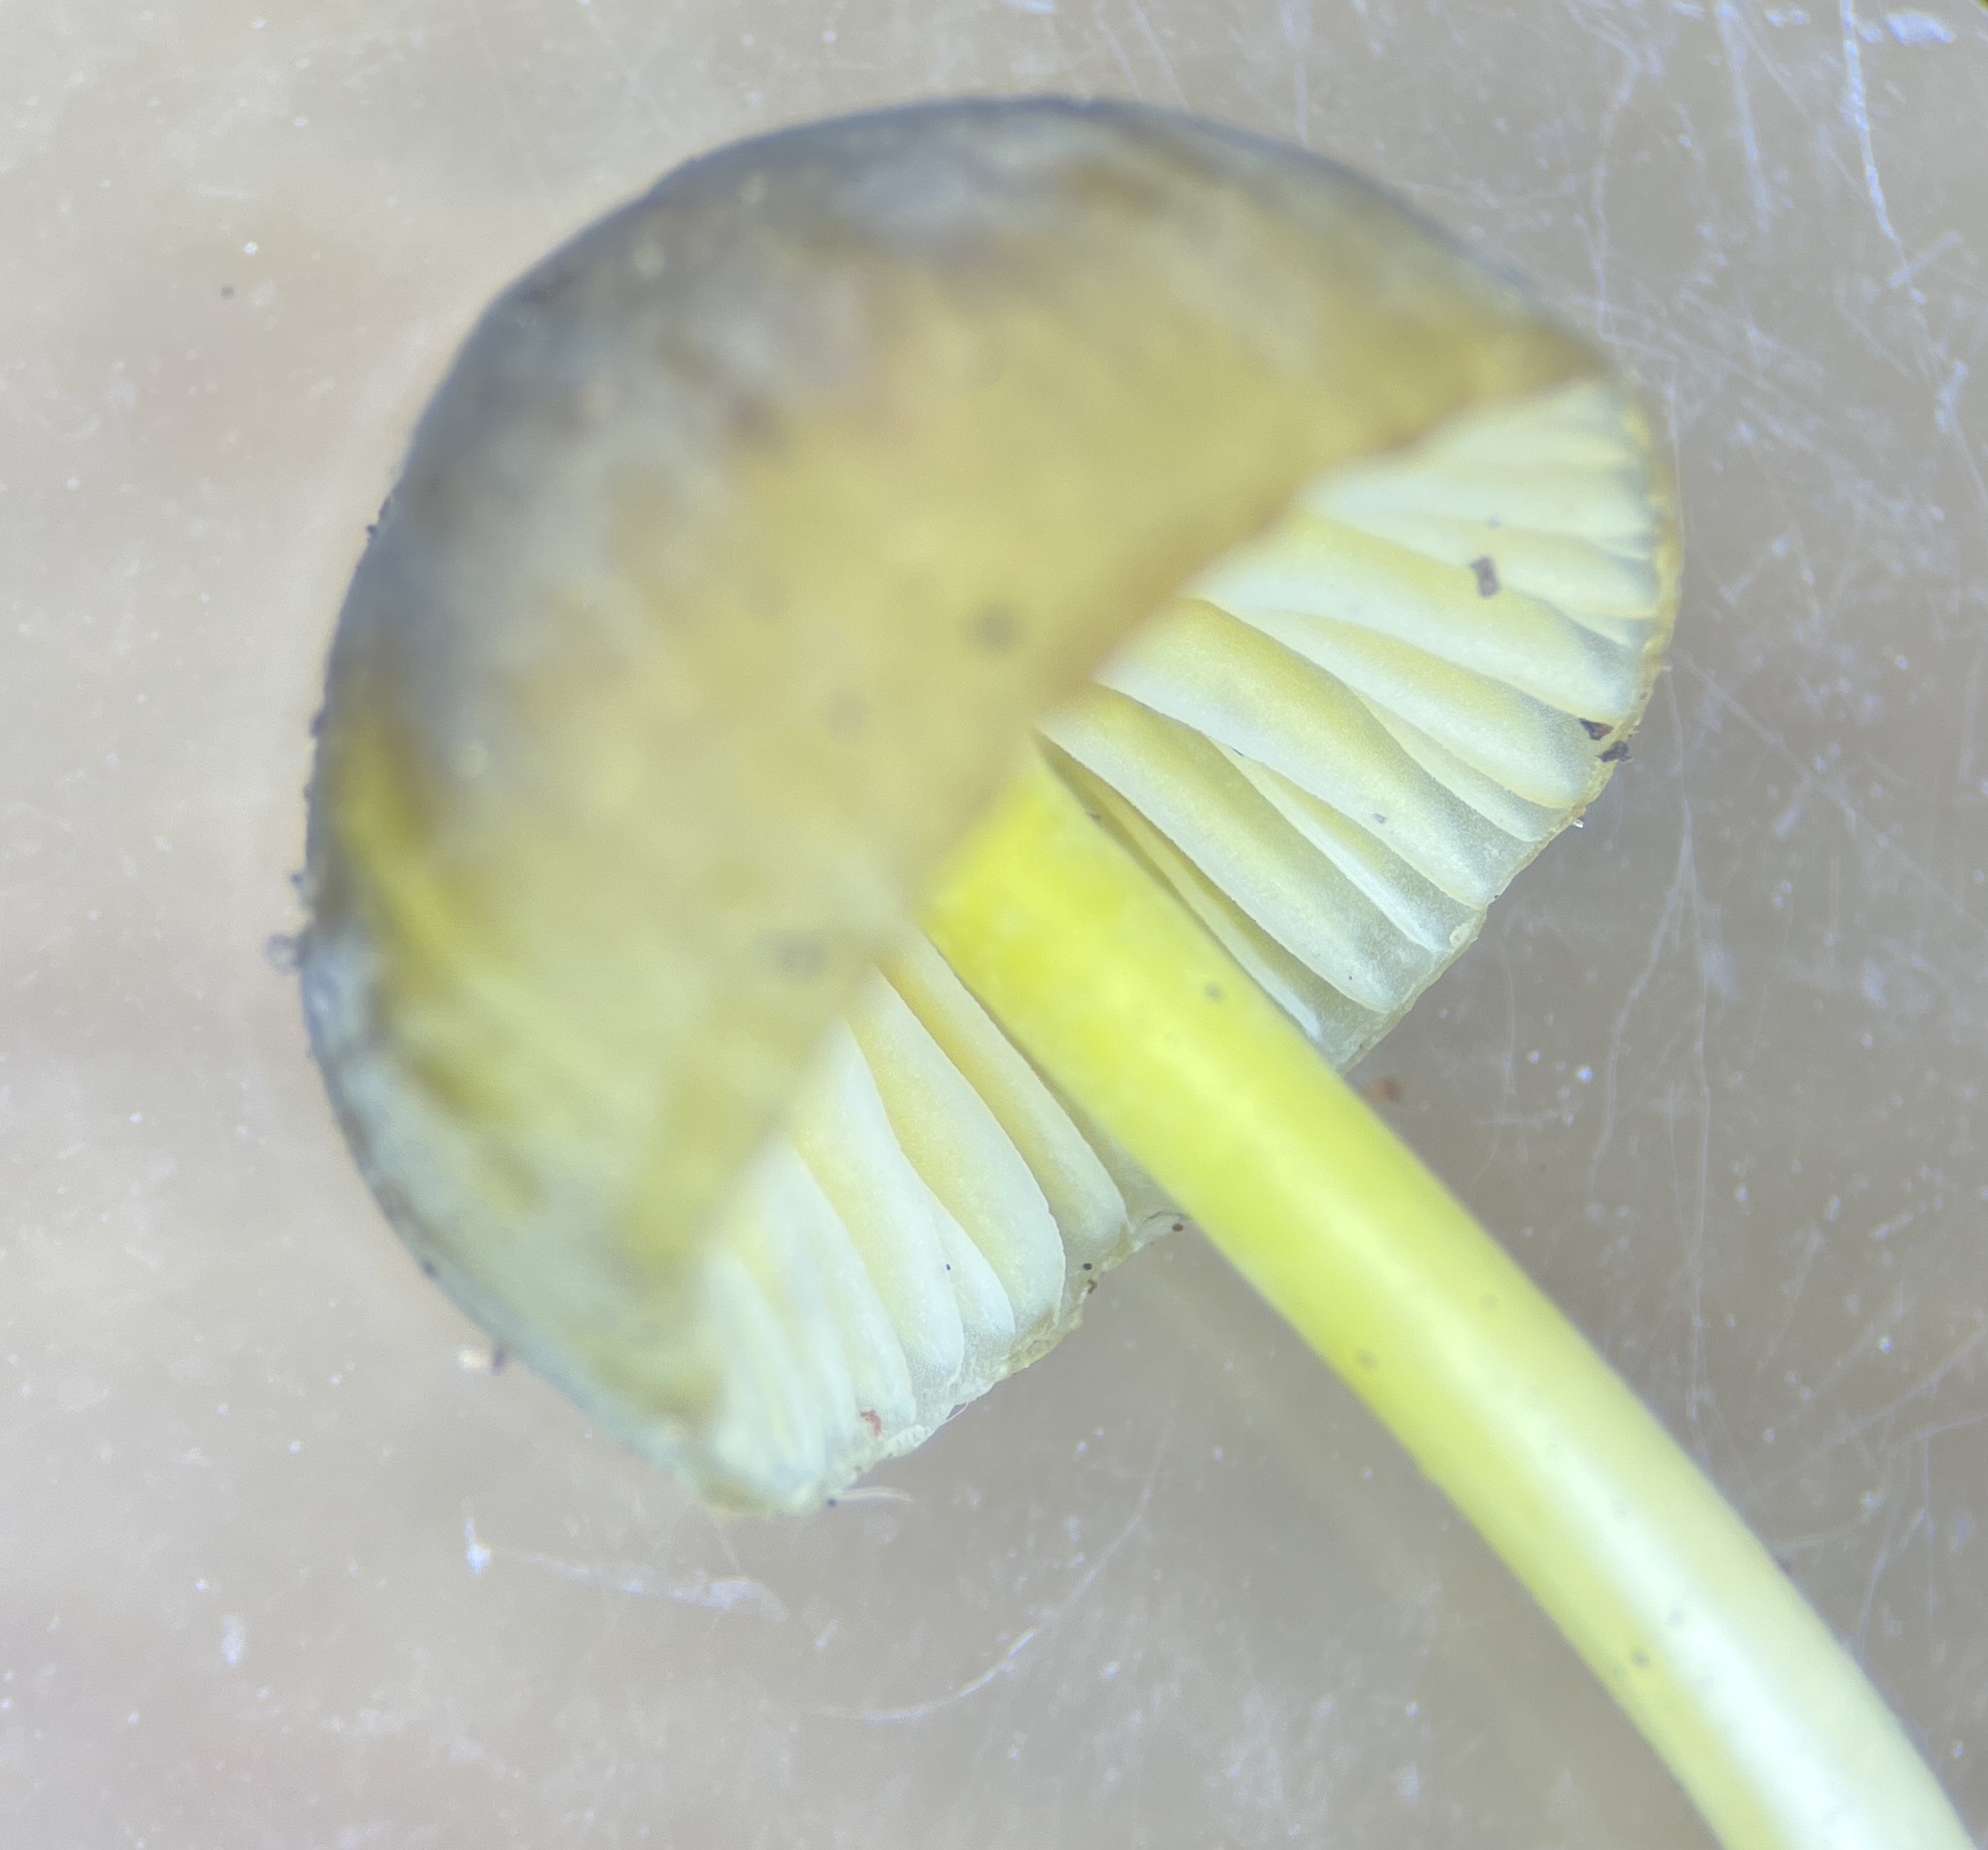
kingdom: Fungi
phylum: Basidiomycota
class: Agaricomycetes
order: Agaricales
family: Mycenaceae
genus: Mycena
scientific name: Mycena epipterygia
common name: Yellowleg bonnet
